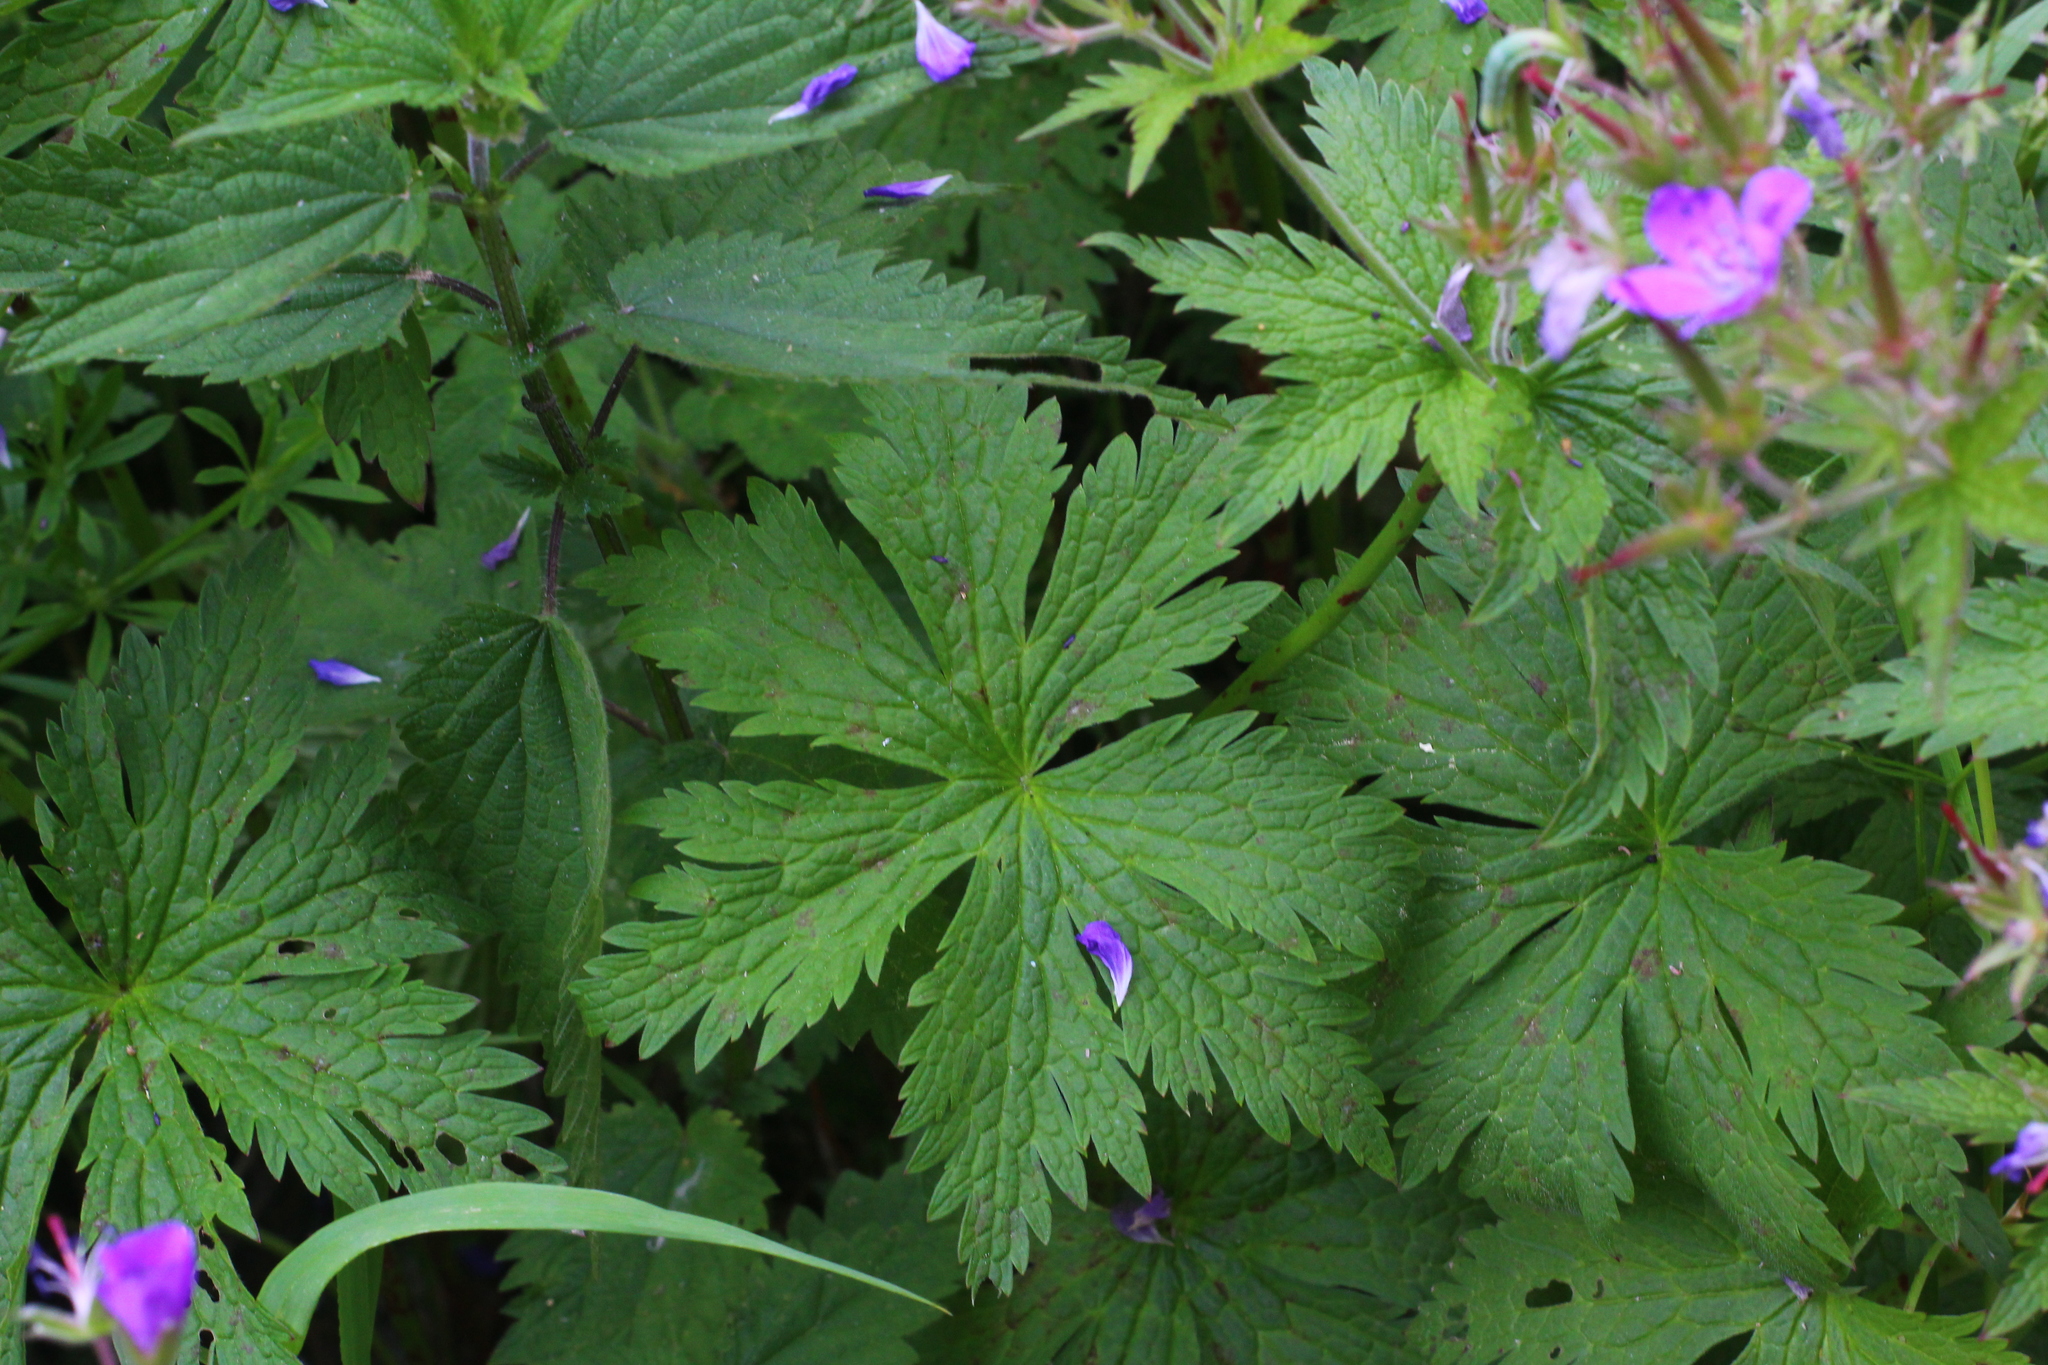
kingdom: Plantae
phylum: Tracheophyta
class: Magnoliopsida
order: Geraniales
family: Geraniaceae
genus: Geranium
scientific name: Geranium sylvaticum
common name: Wood crane's-bill
